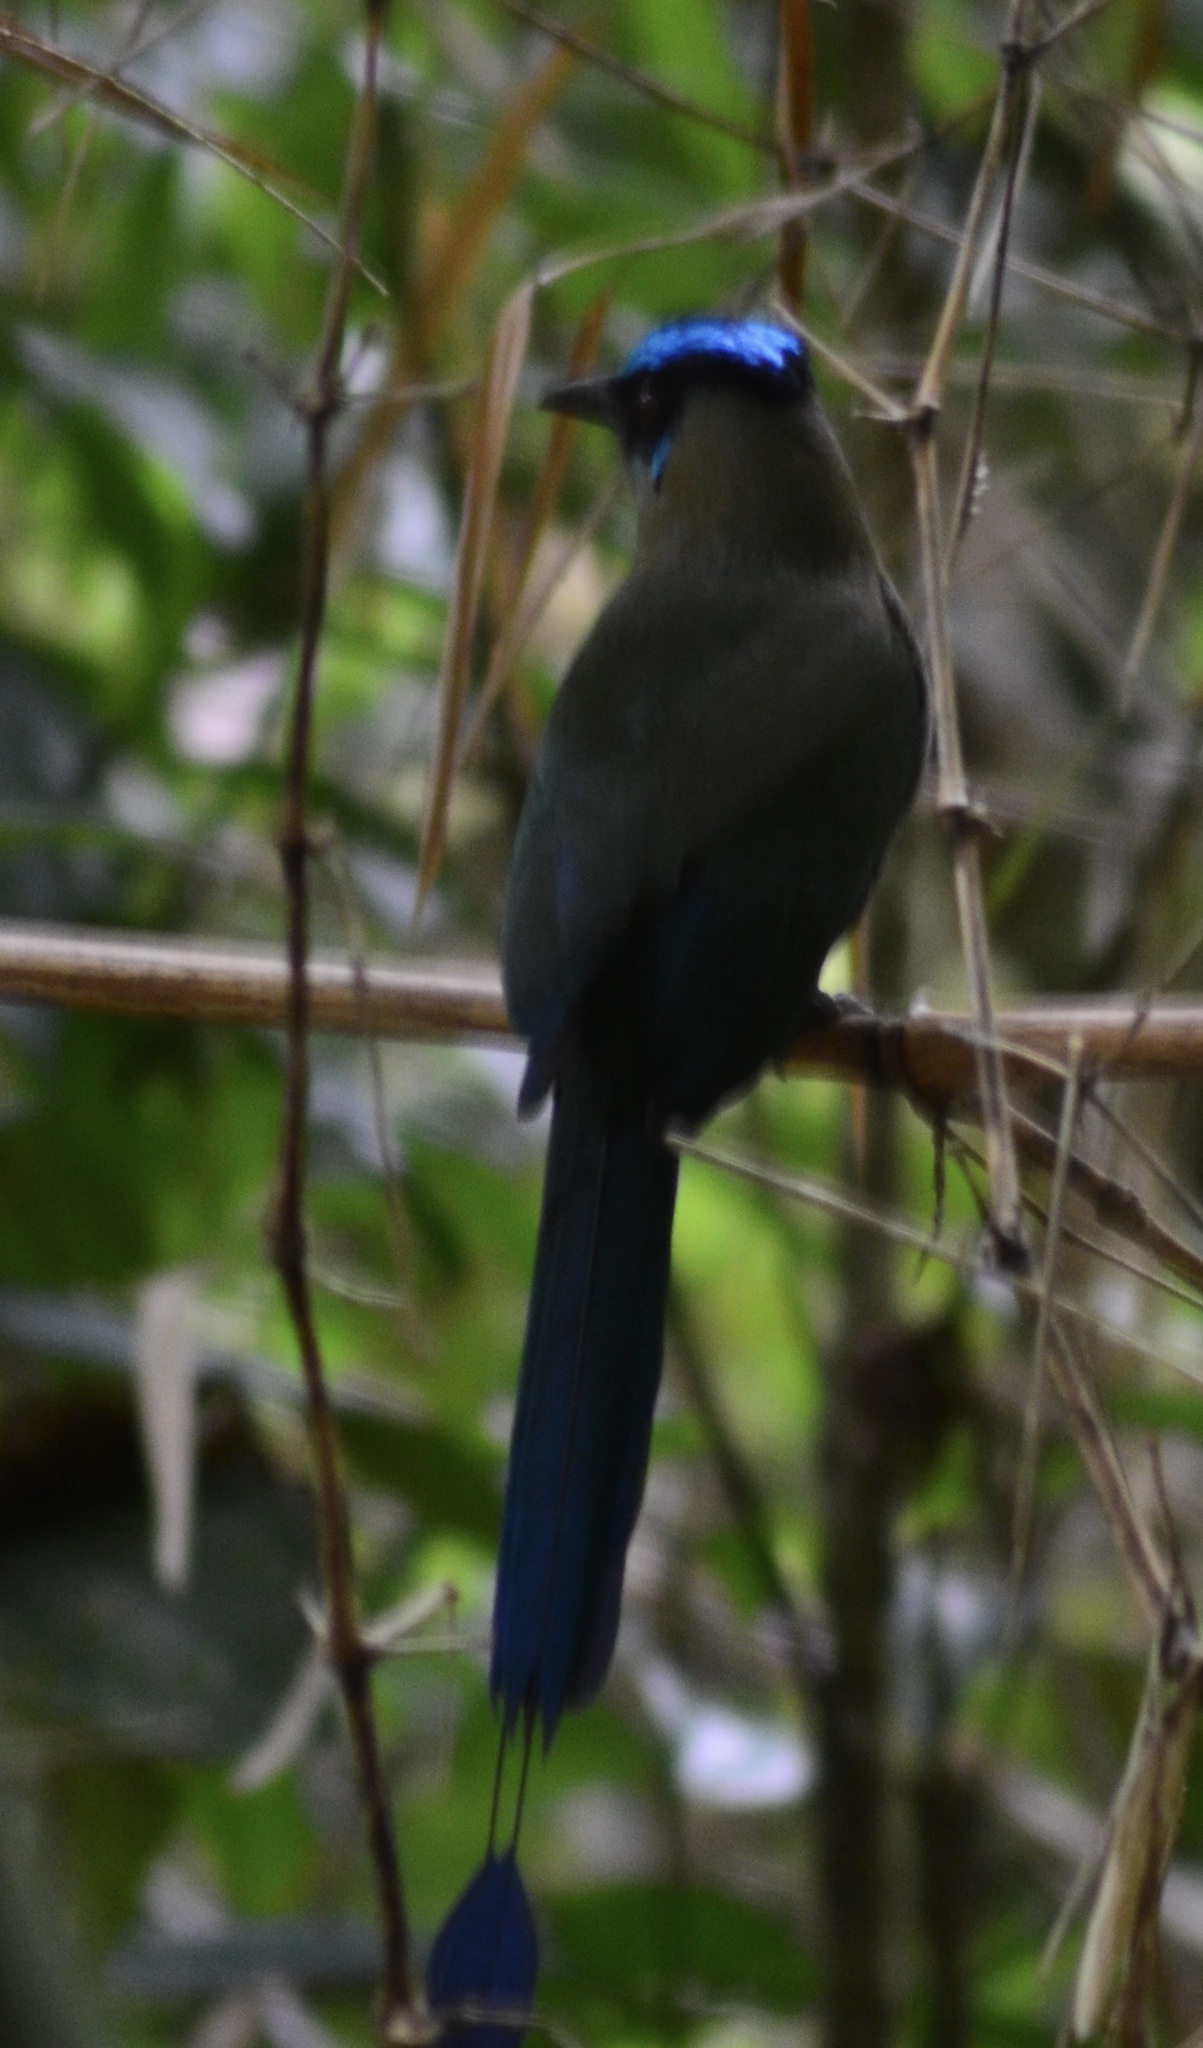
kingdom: Animalia
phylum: Chordata
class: Aves
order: Coraciiformes
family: Momotidae
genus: Momotus
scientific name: Momotus momota
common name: Amazonian motmot
